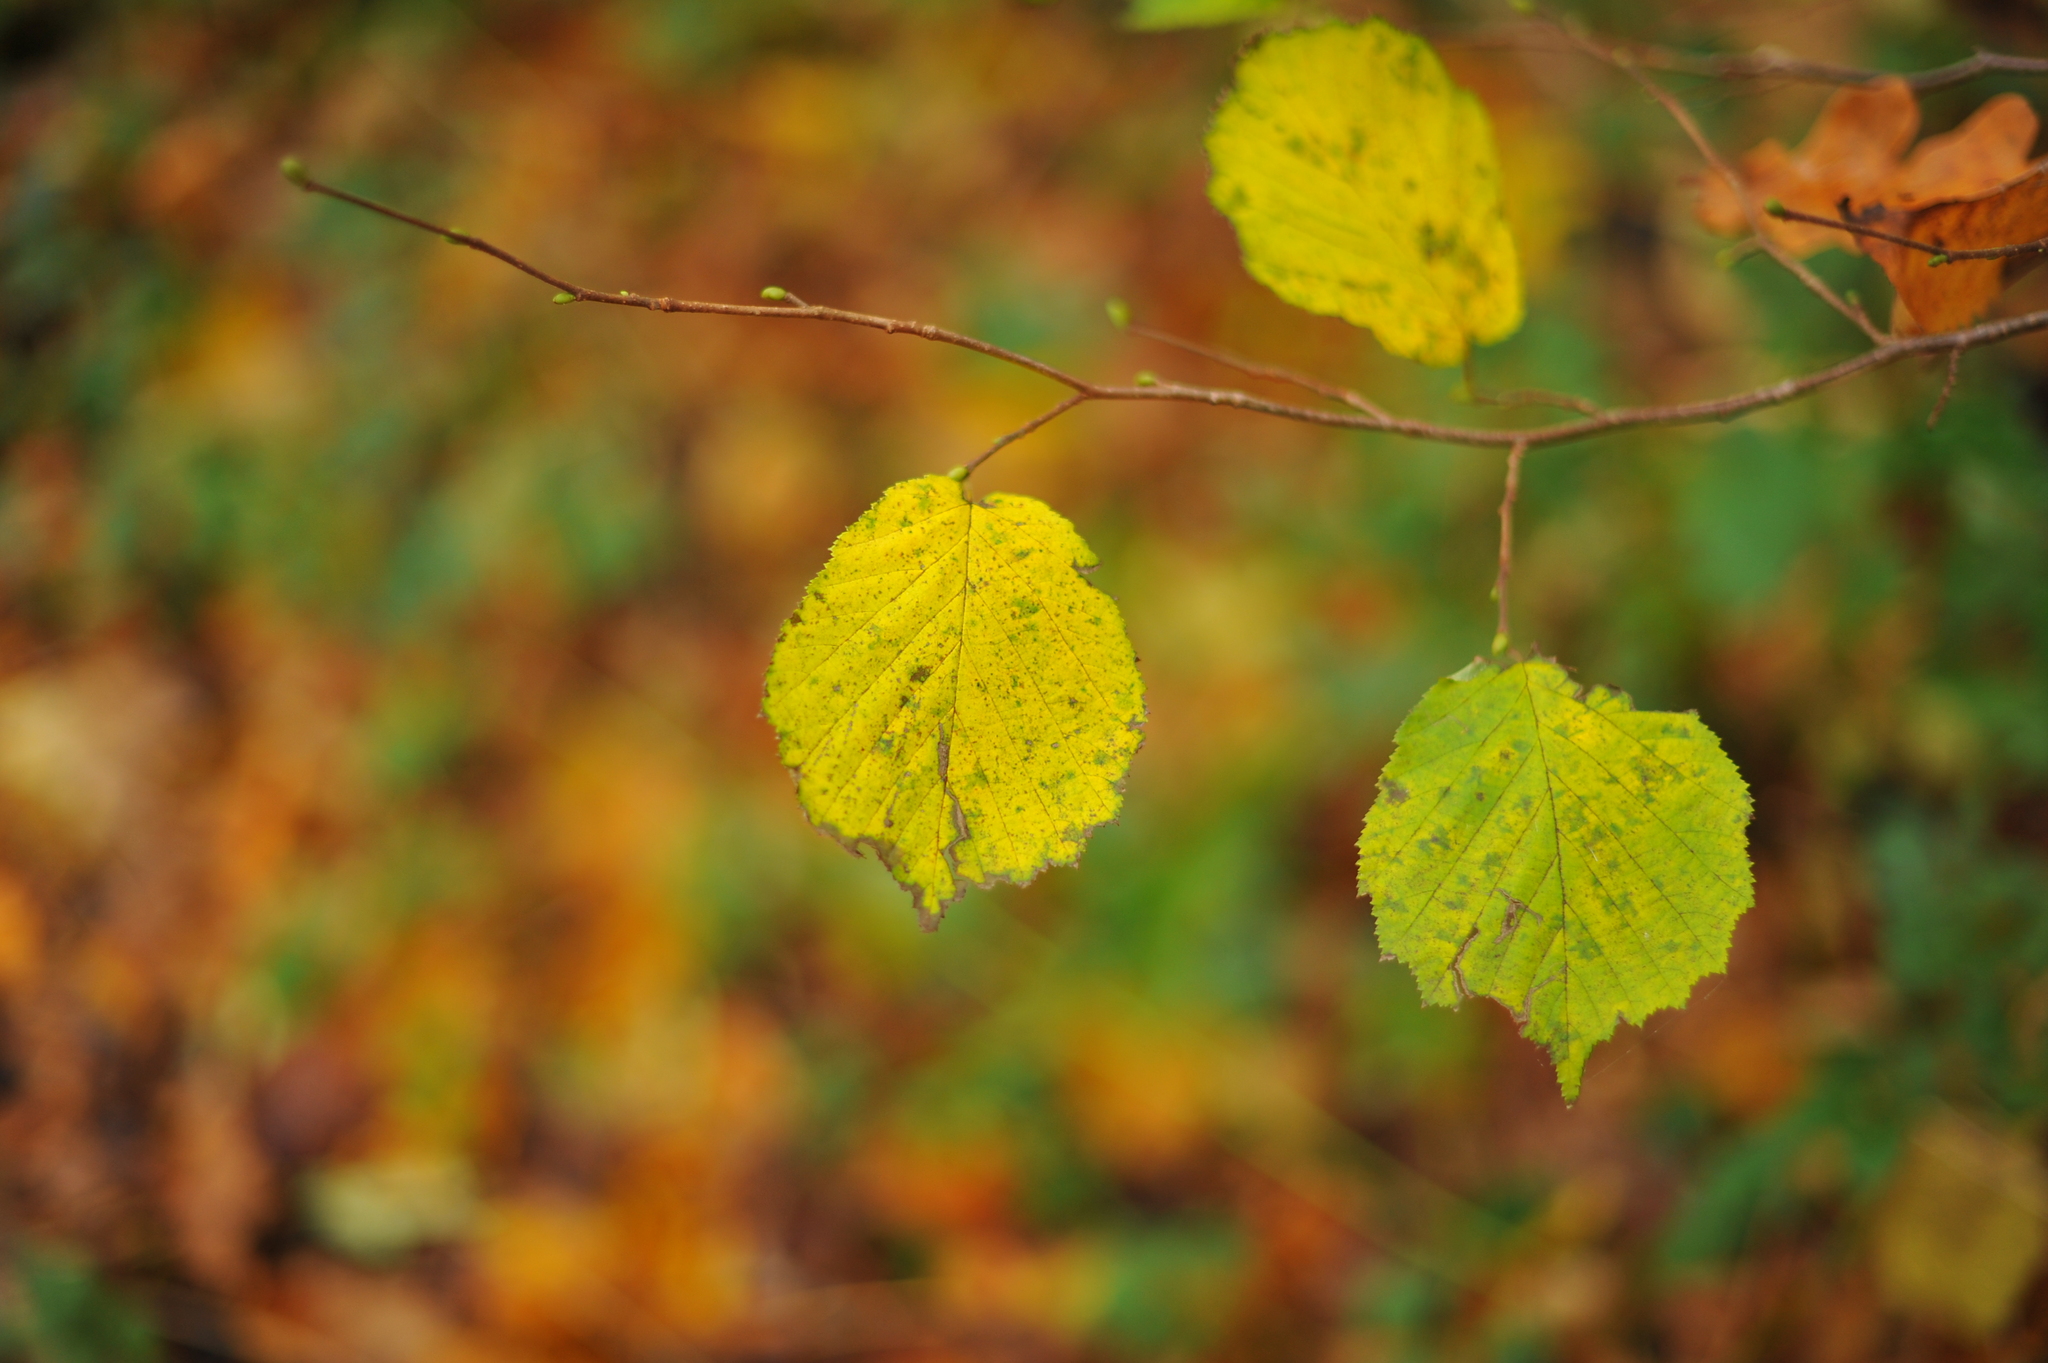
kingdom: Plantae
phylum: Tracheophyta
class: Magnoliopsida
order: Fagales
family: Betulaceae
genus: Corylus
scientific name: Corylus avellana
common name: European hazel
